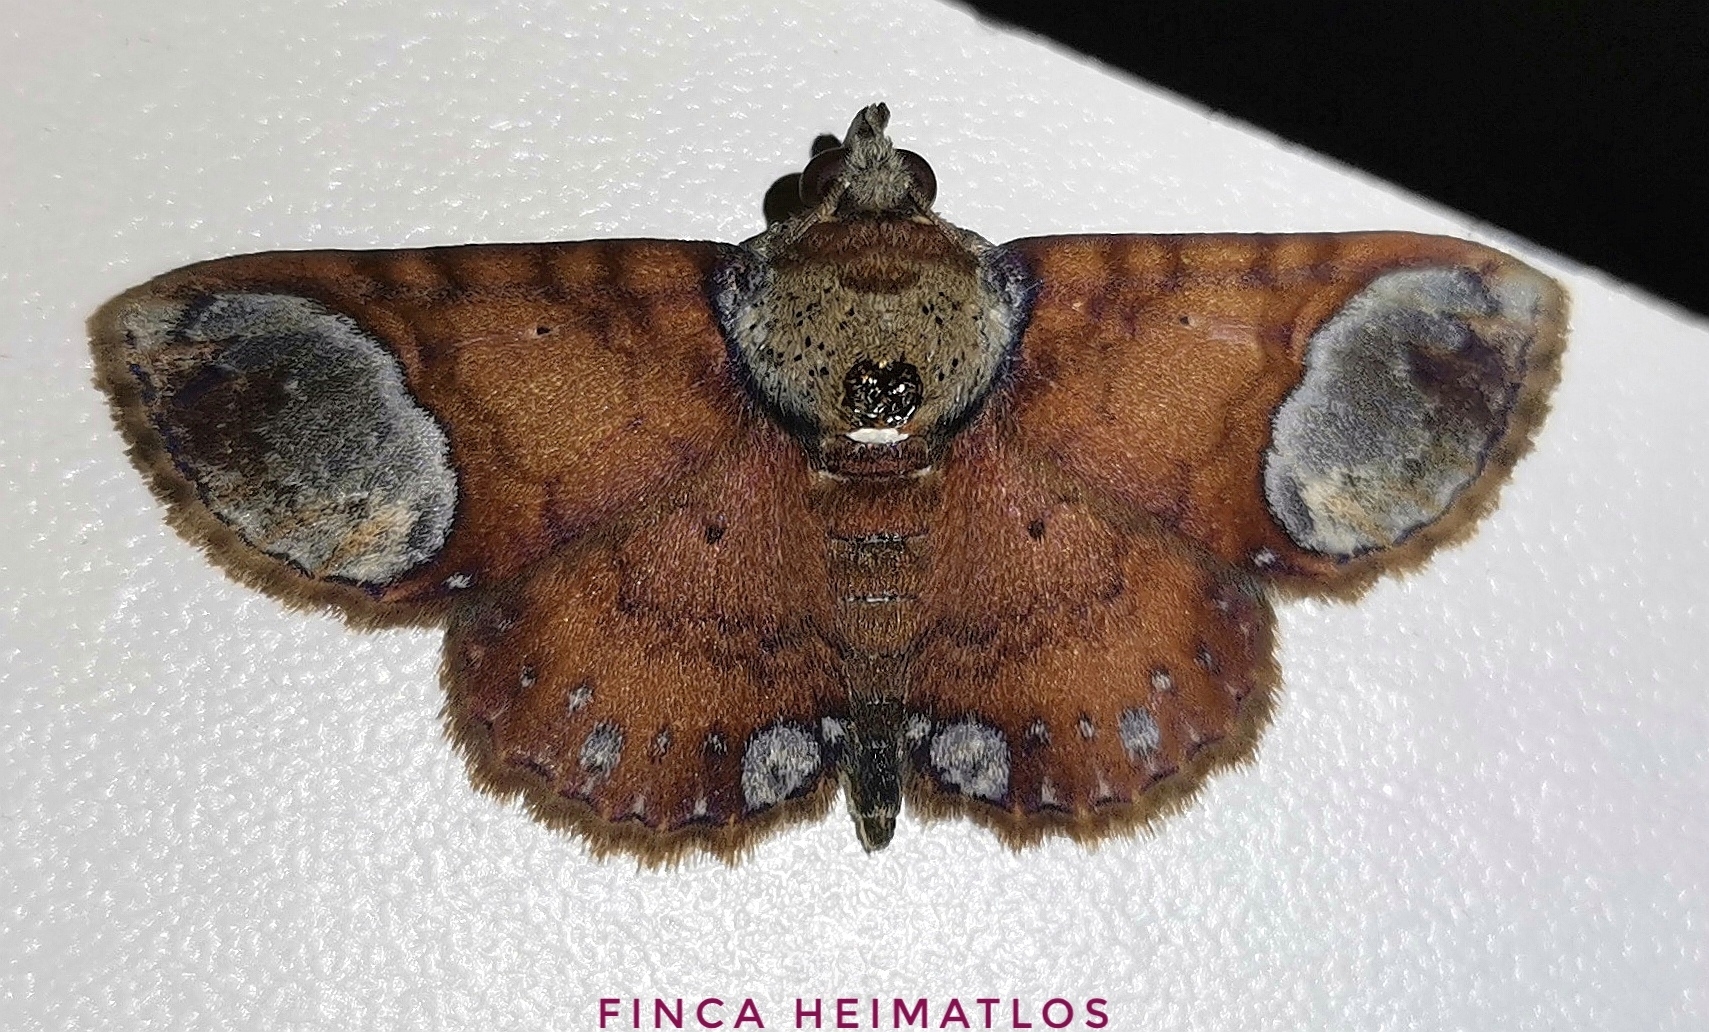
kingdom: Animalia
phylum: Arthropoda
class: Insecta
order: Lepidoptera
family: Erebidae
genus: Antiblemma
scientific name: Antiblemma trogocycla
